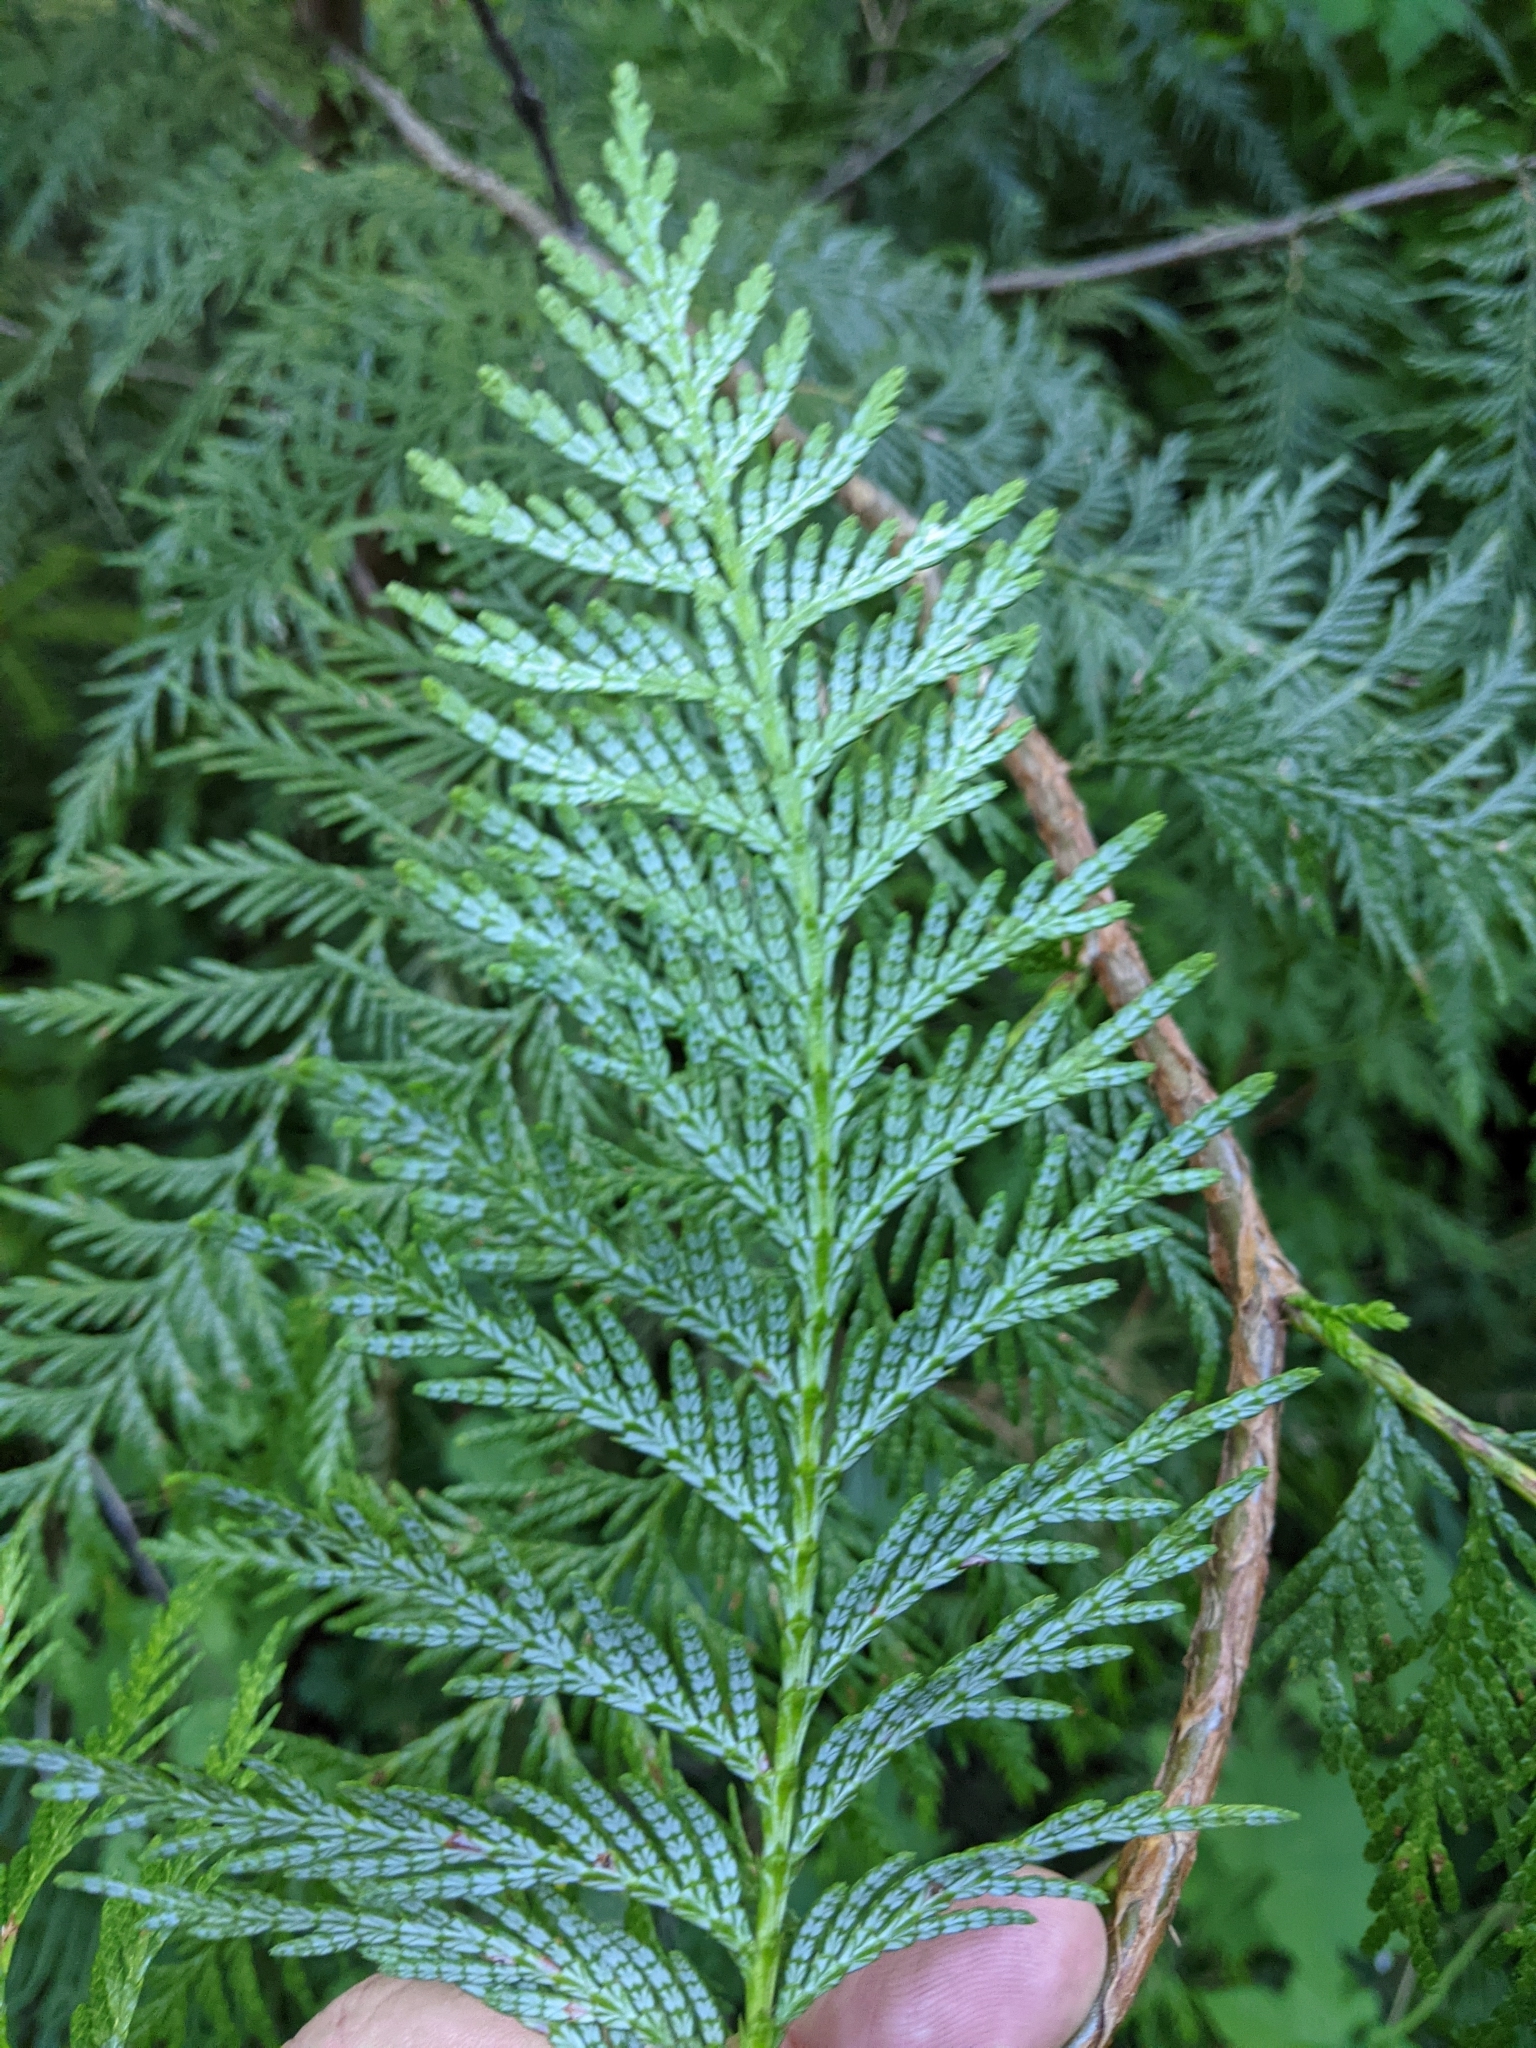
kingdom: Plantae
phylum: Tracheophyta
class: Pinopsida
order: Pinales
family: Cupressaceae
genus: Thuja
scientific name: Thuja plicata
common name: Western red-cedar
